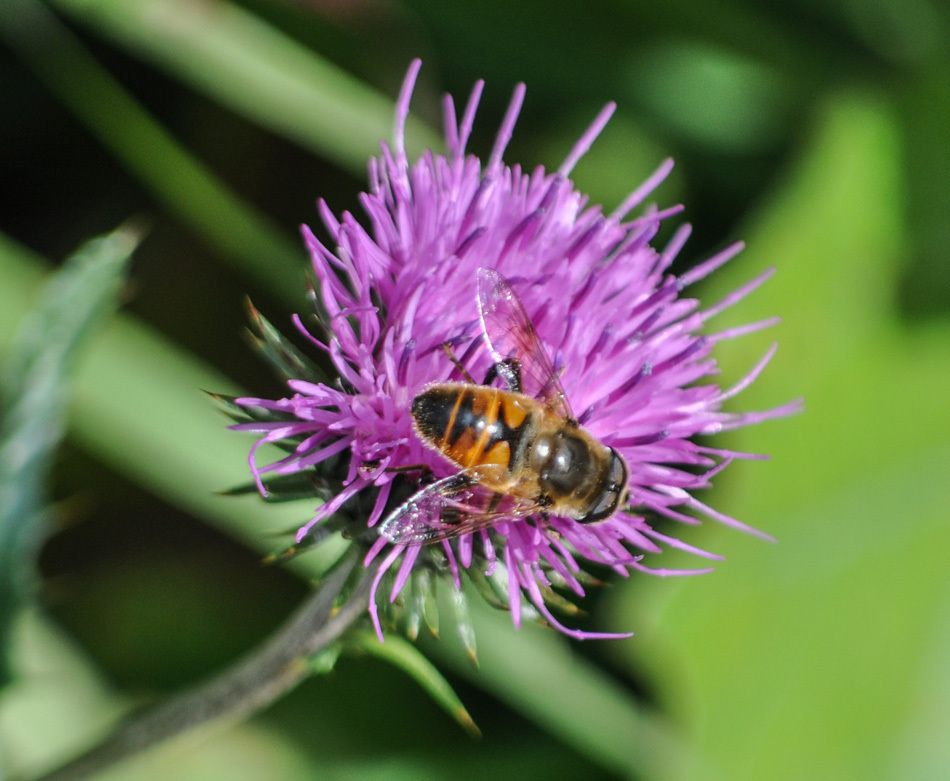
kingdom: Animalia
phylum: Arthropoda
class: Insecta
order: Diptera
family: Syrphidae
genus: Eristalis
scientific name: Eristalis tenax
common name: Drone fly
